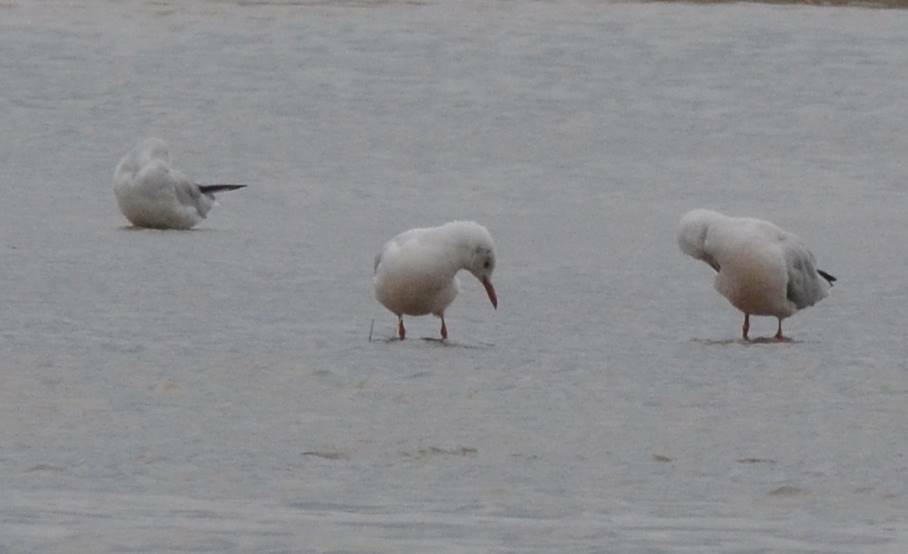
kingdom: Animalia
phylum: Chordata
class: Aves
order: Charadriiformes
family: Laridae
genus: Chroicocephalus
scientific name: Chroicocephalus genei
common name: Slender-billed gull
